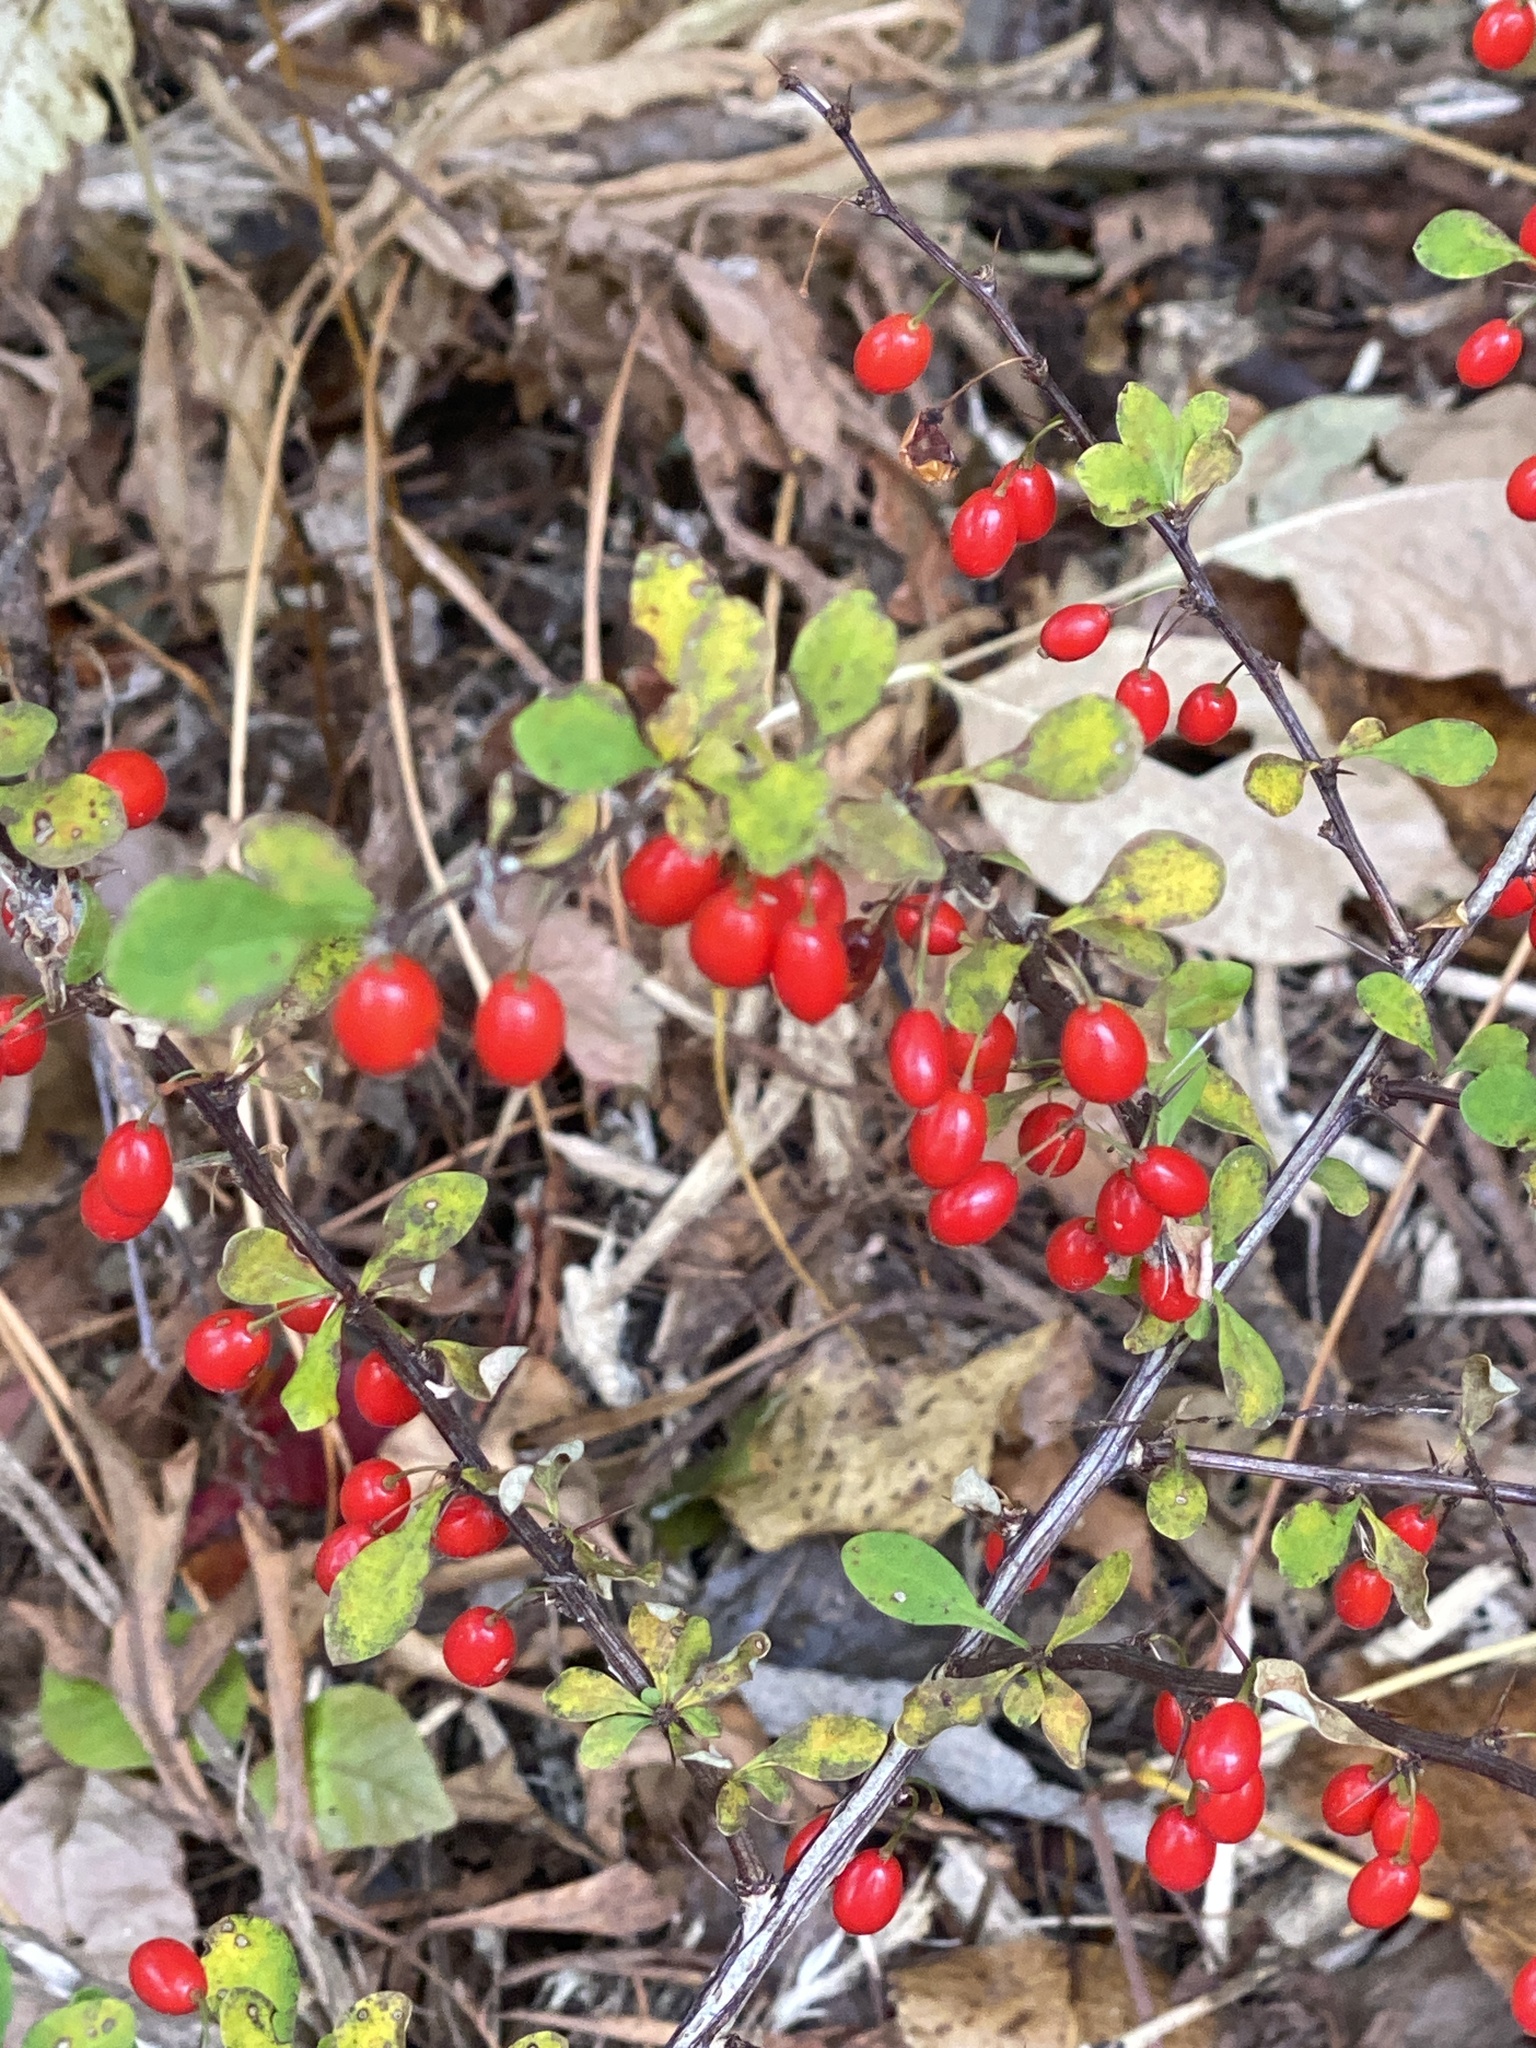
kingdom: Plantae
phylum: Tracheophyta
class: Magnoliopsida
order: Ranunculales
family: Berberidaceae
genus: Berberis
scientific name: Berberis thunbergii
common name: Japanese barberry
